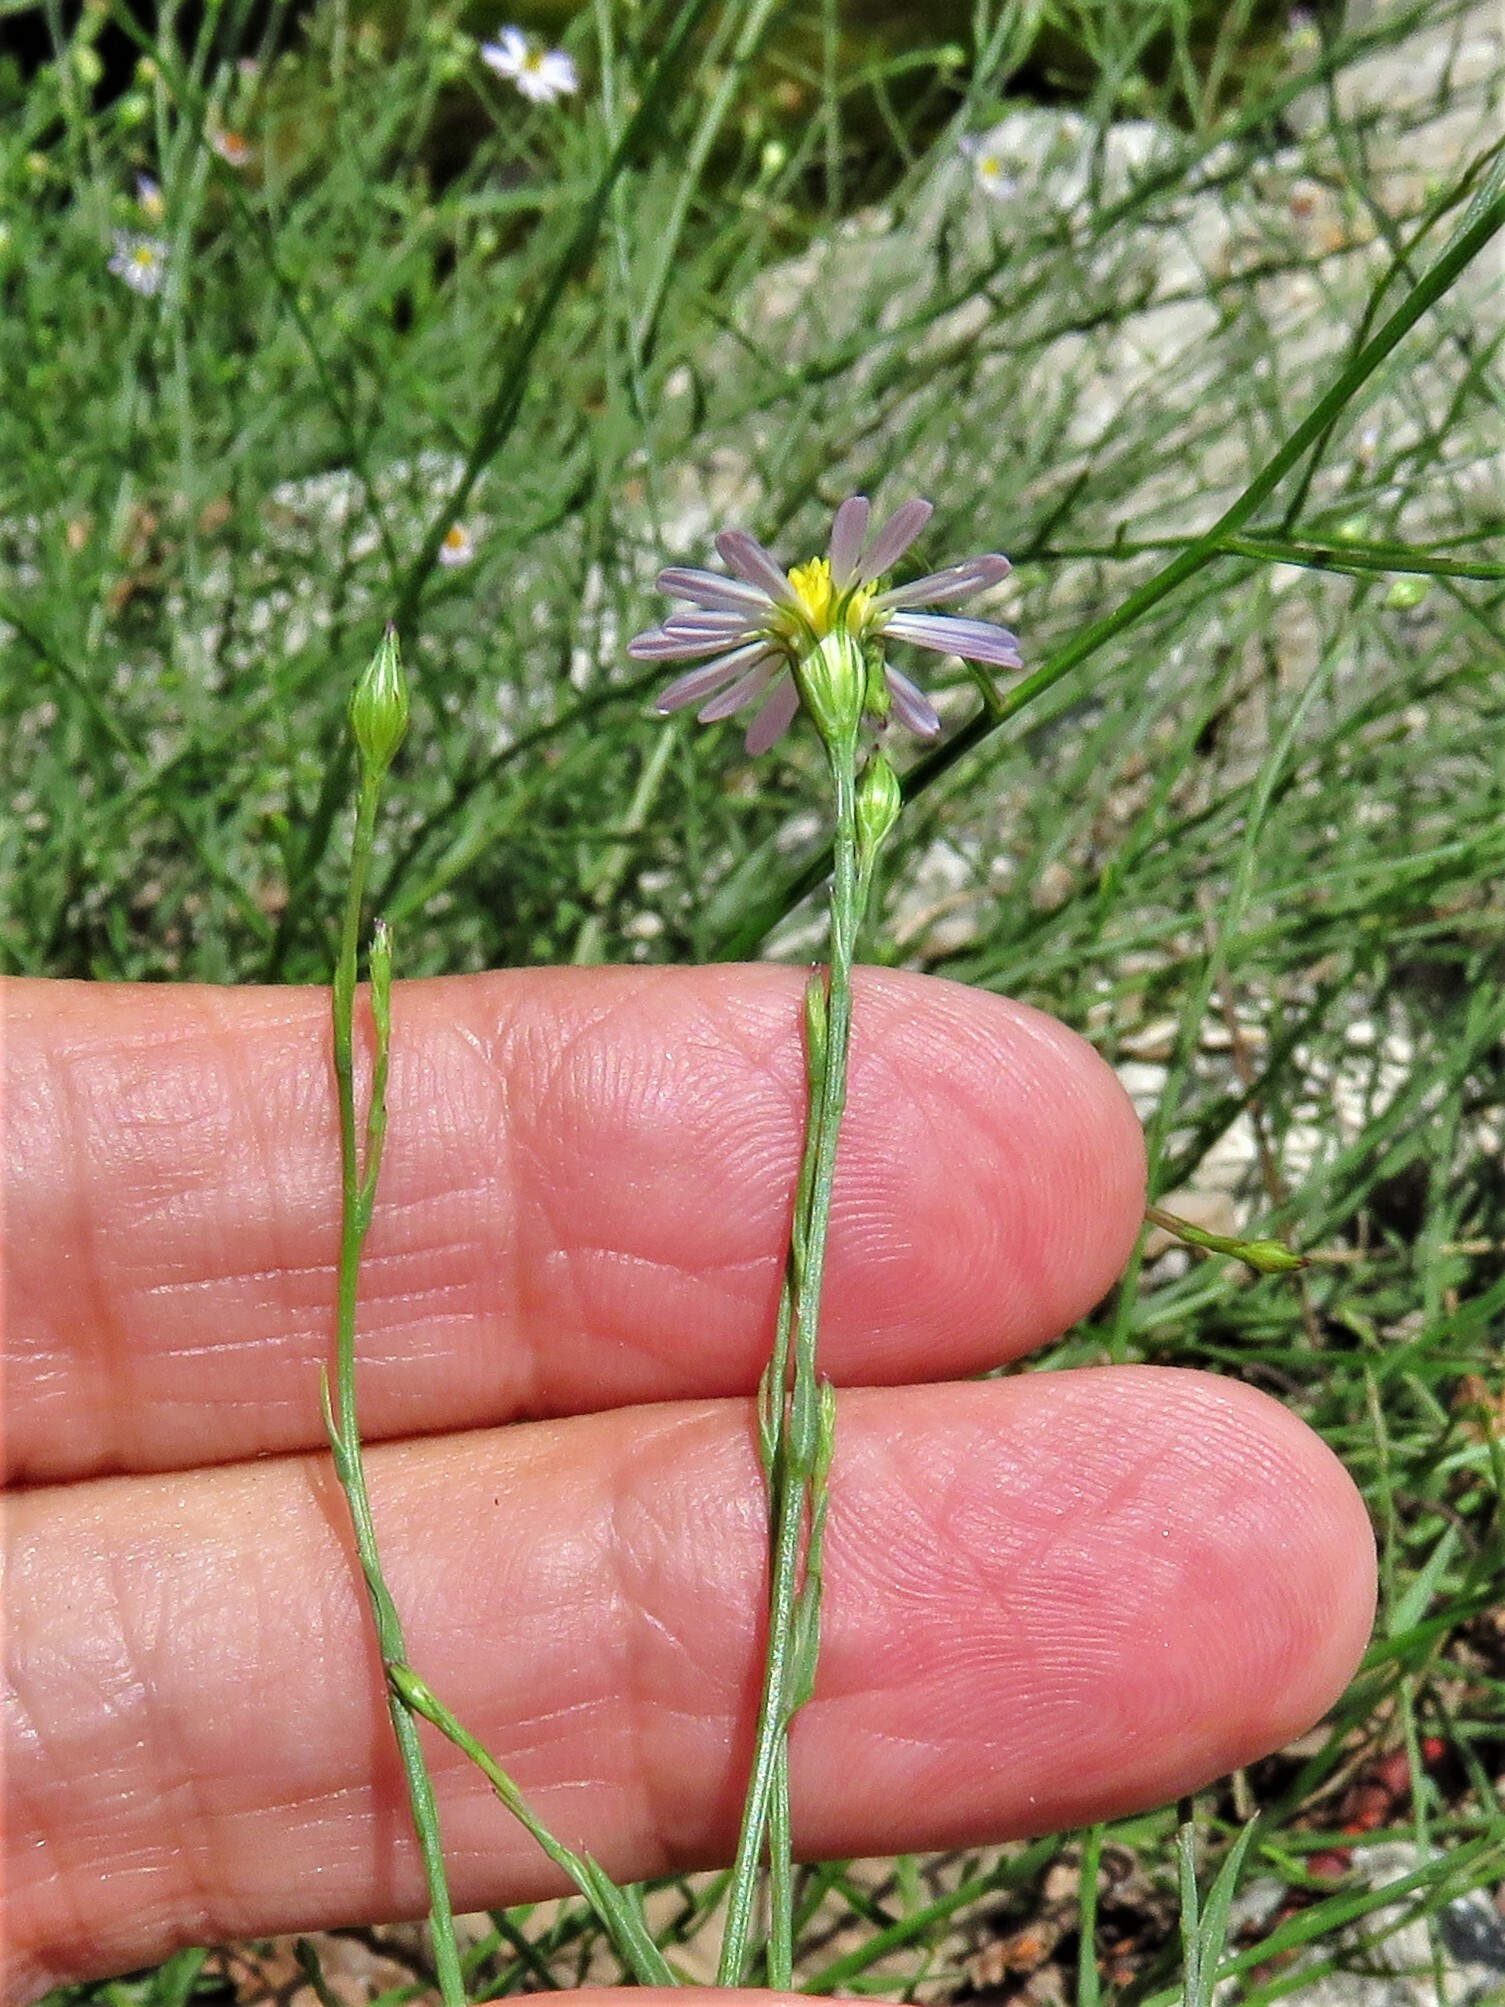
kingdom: Plantae
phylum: Tracheophyta
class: Magnoliopsida
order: Asterales
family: Asteraceae
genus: Symphyotrichum
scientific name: Symphyotrichum divaricatum
